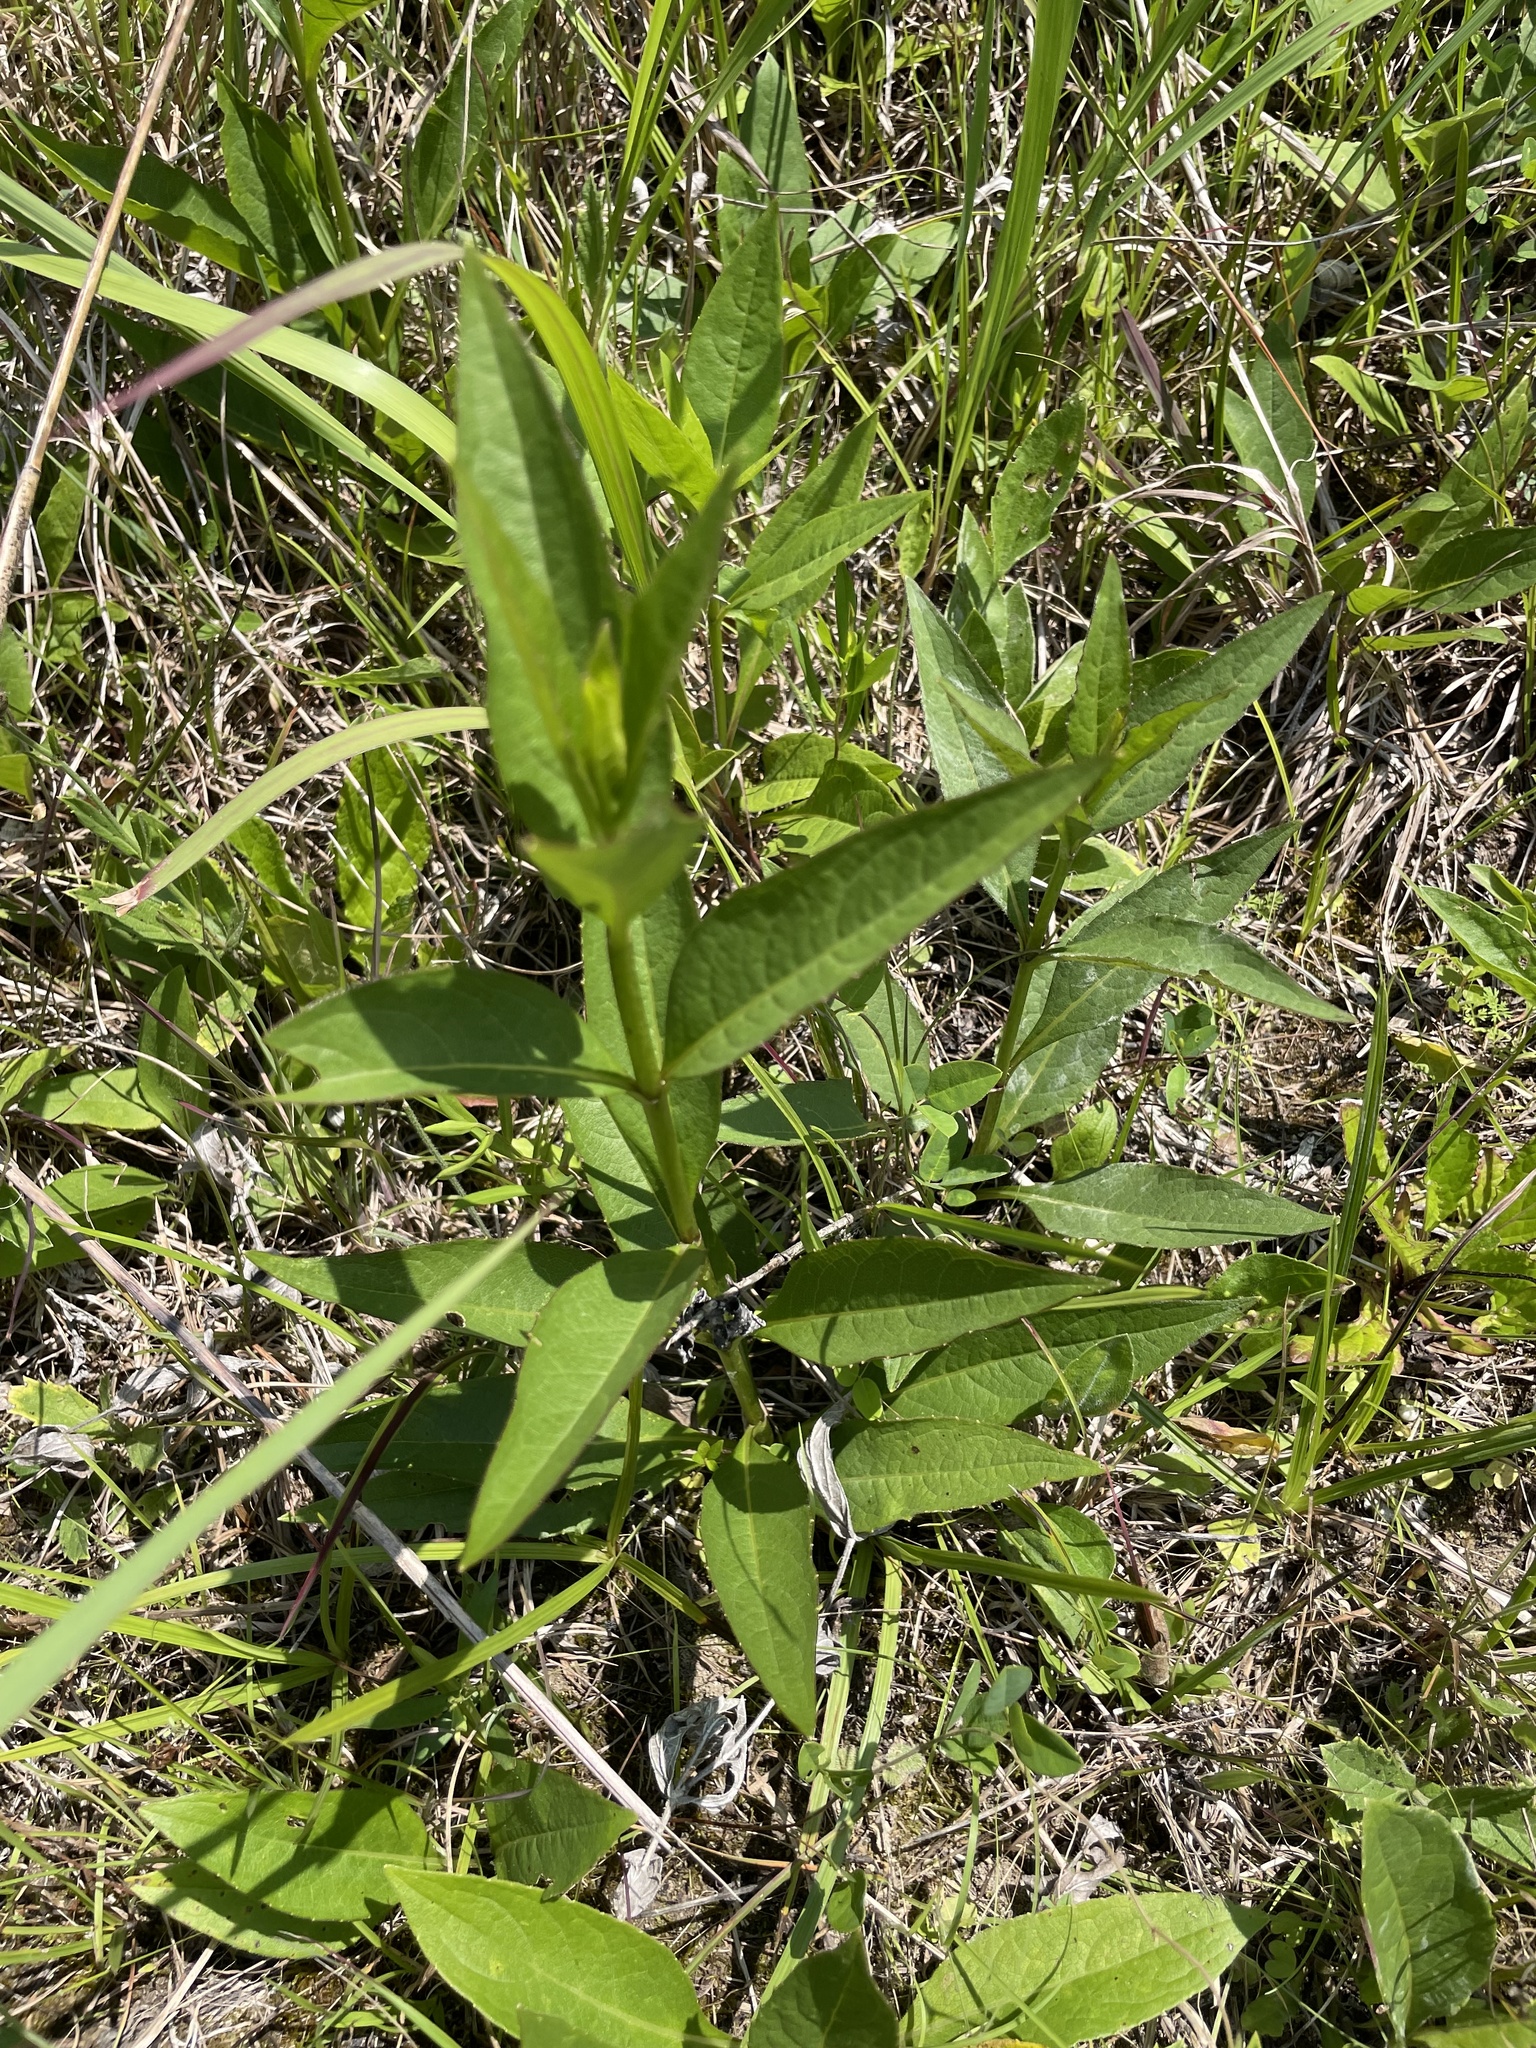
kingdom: Plantae
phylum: Tracheophyta
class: Magnoliopsida
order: Asterales
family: Asteraceae
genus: Silphium
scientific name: Silphium confertifolium
